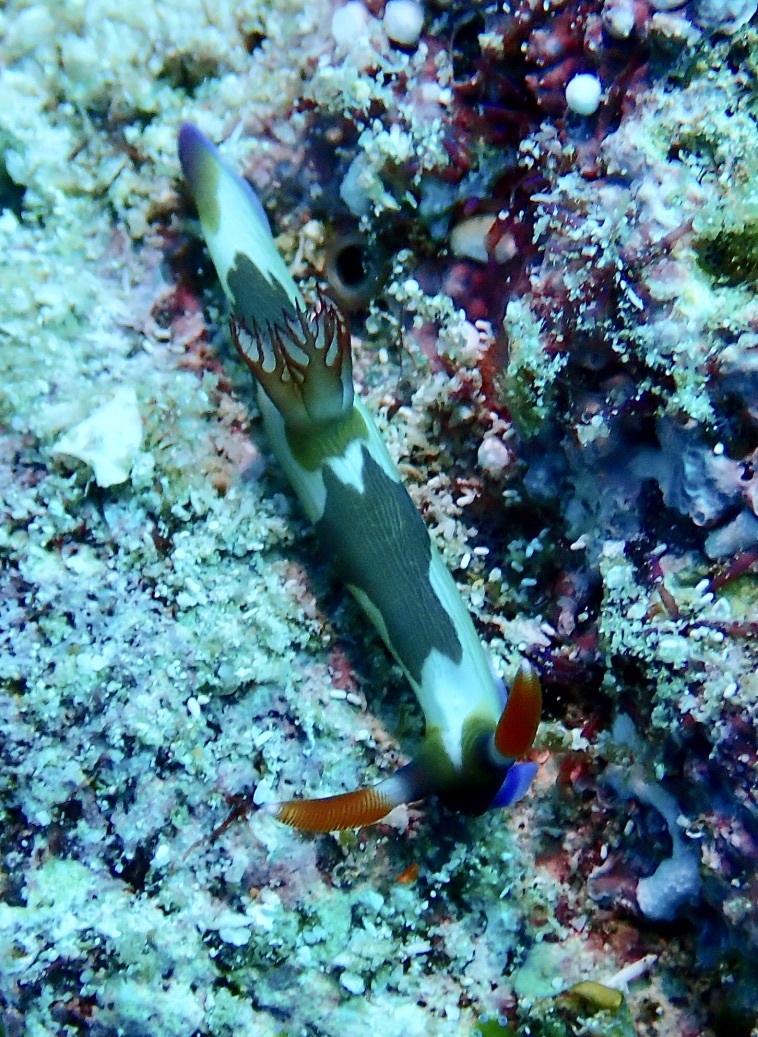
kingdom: Animalia
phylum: Mollusca
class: Gastropoda
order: Nudibranchia
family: Polyceridae
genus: Nembrotha
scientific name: Nembrotha chamberlaini
